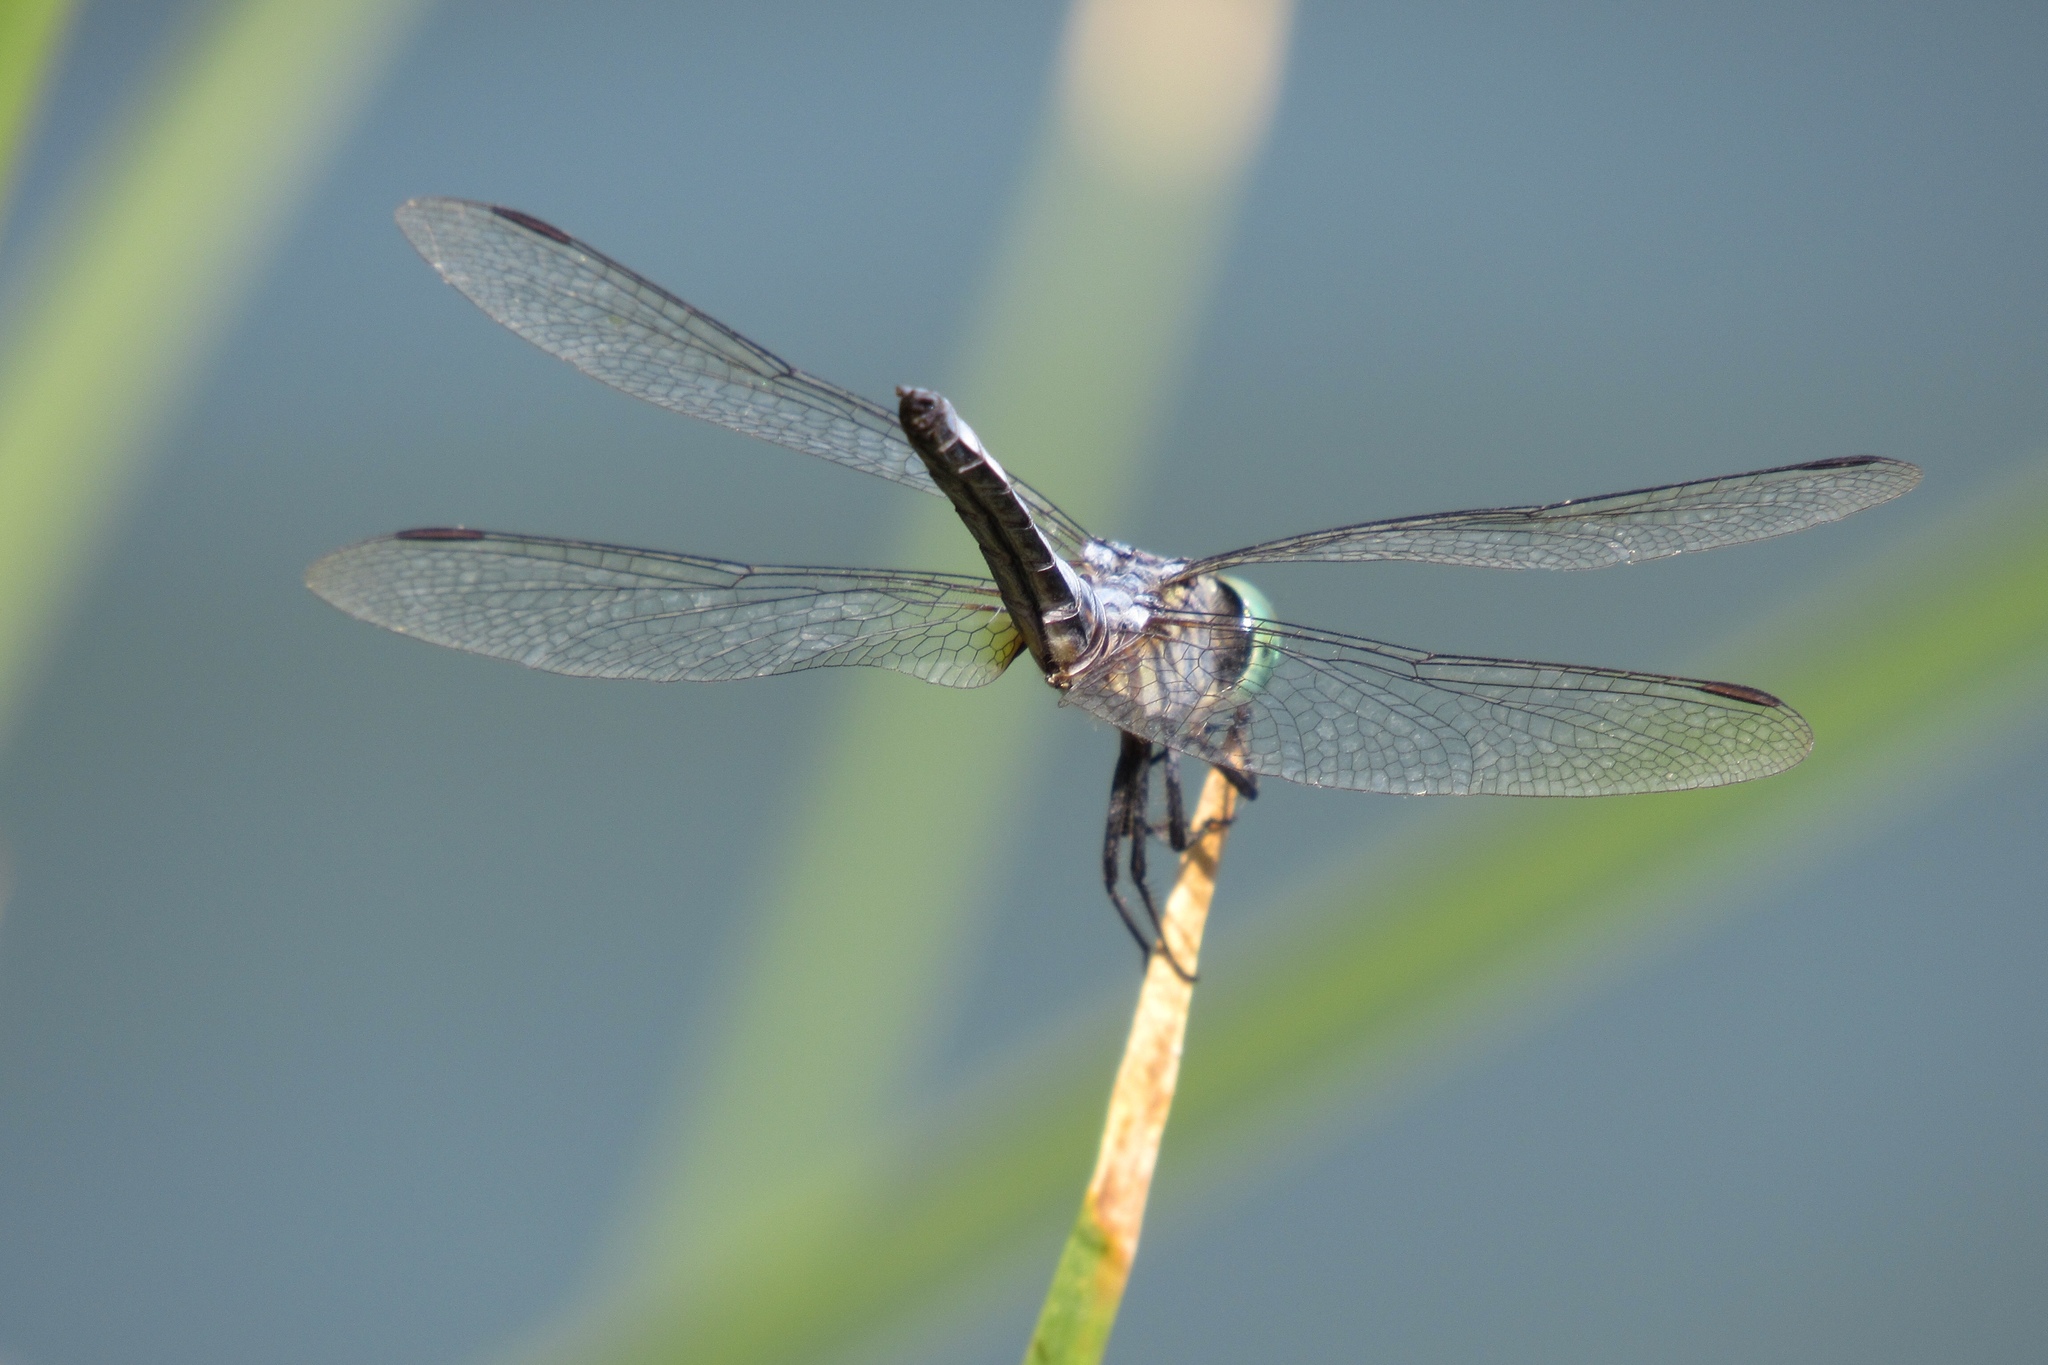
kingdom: Animalia
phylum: Arthropoda
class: Insecta
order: Odonata
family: Libellulidae
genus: Pachydiplax
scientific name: Pachydiplax longipennis
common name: Blue dasher
